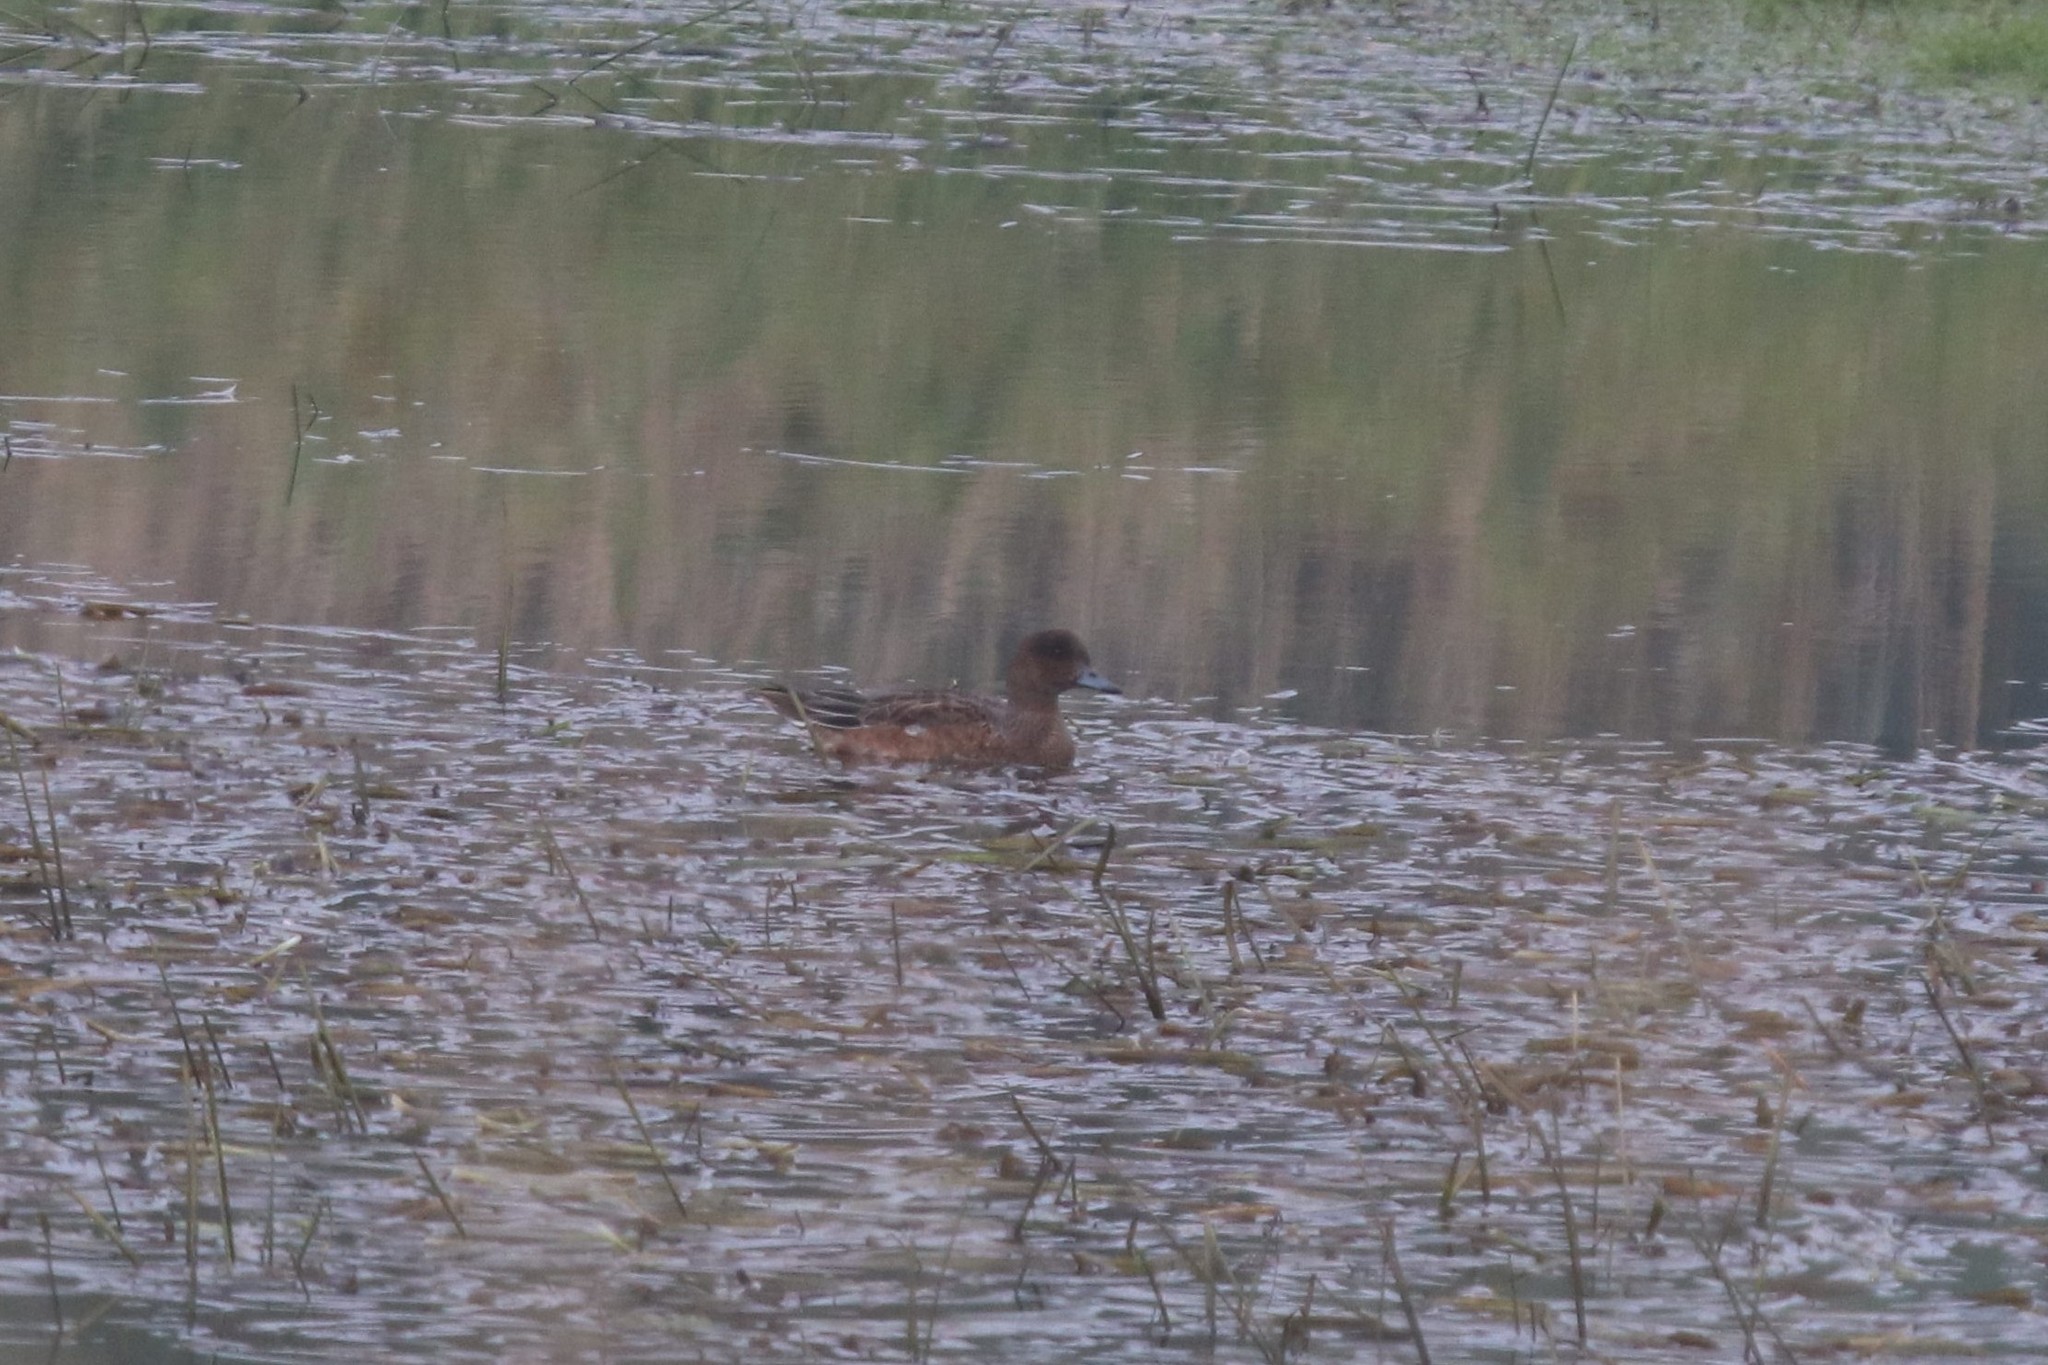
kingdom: Animalia
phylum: Chordata
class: Aves
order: Anseriformes
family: Anatidae
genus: Mareca
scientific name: Mareca penelope
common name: Eurasian wigeon
